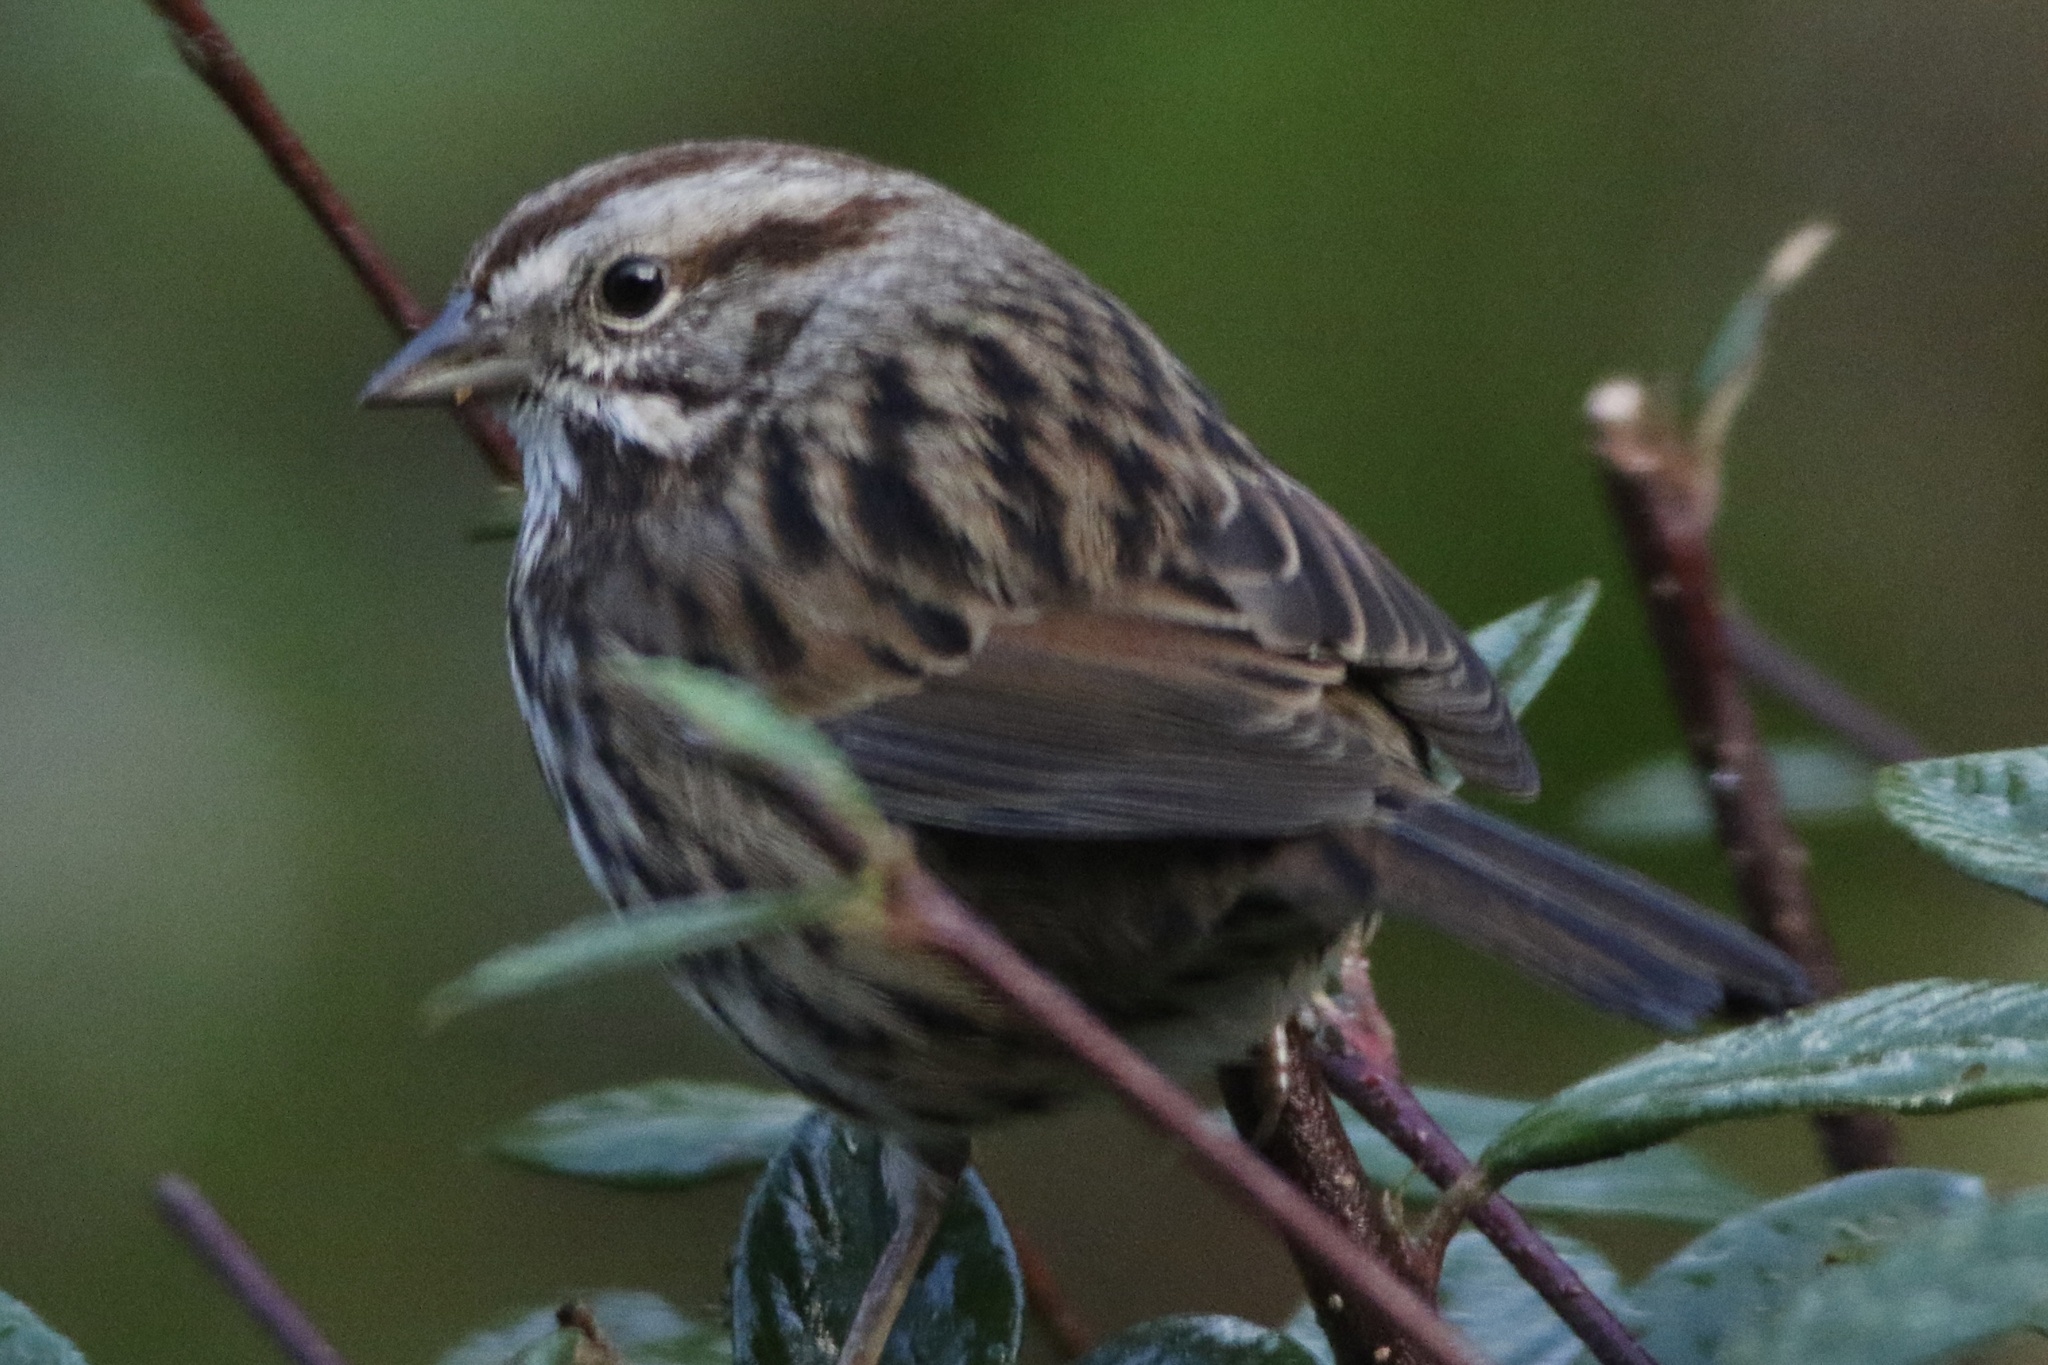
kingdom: Animalia
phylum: Chordata
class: Aves
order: Passeriformes
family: Passerellidae
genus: Melospiza
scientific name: Melospiza melodia
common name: Song sparrow
